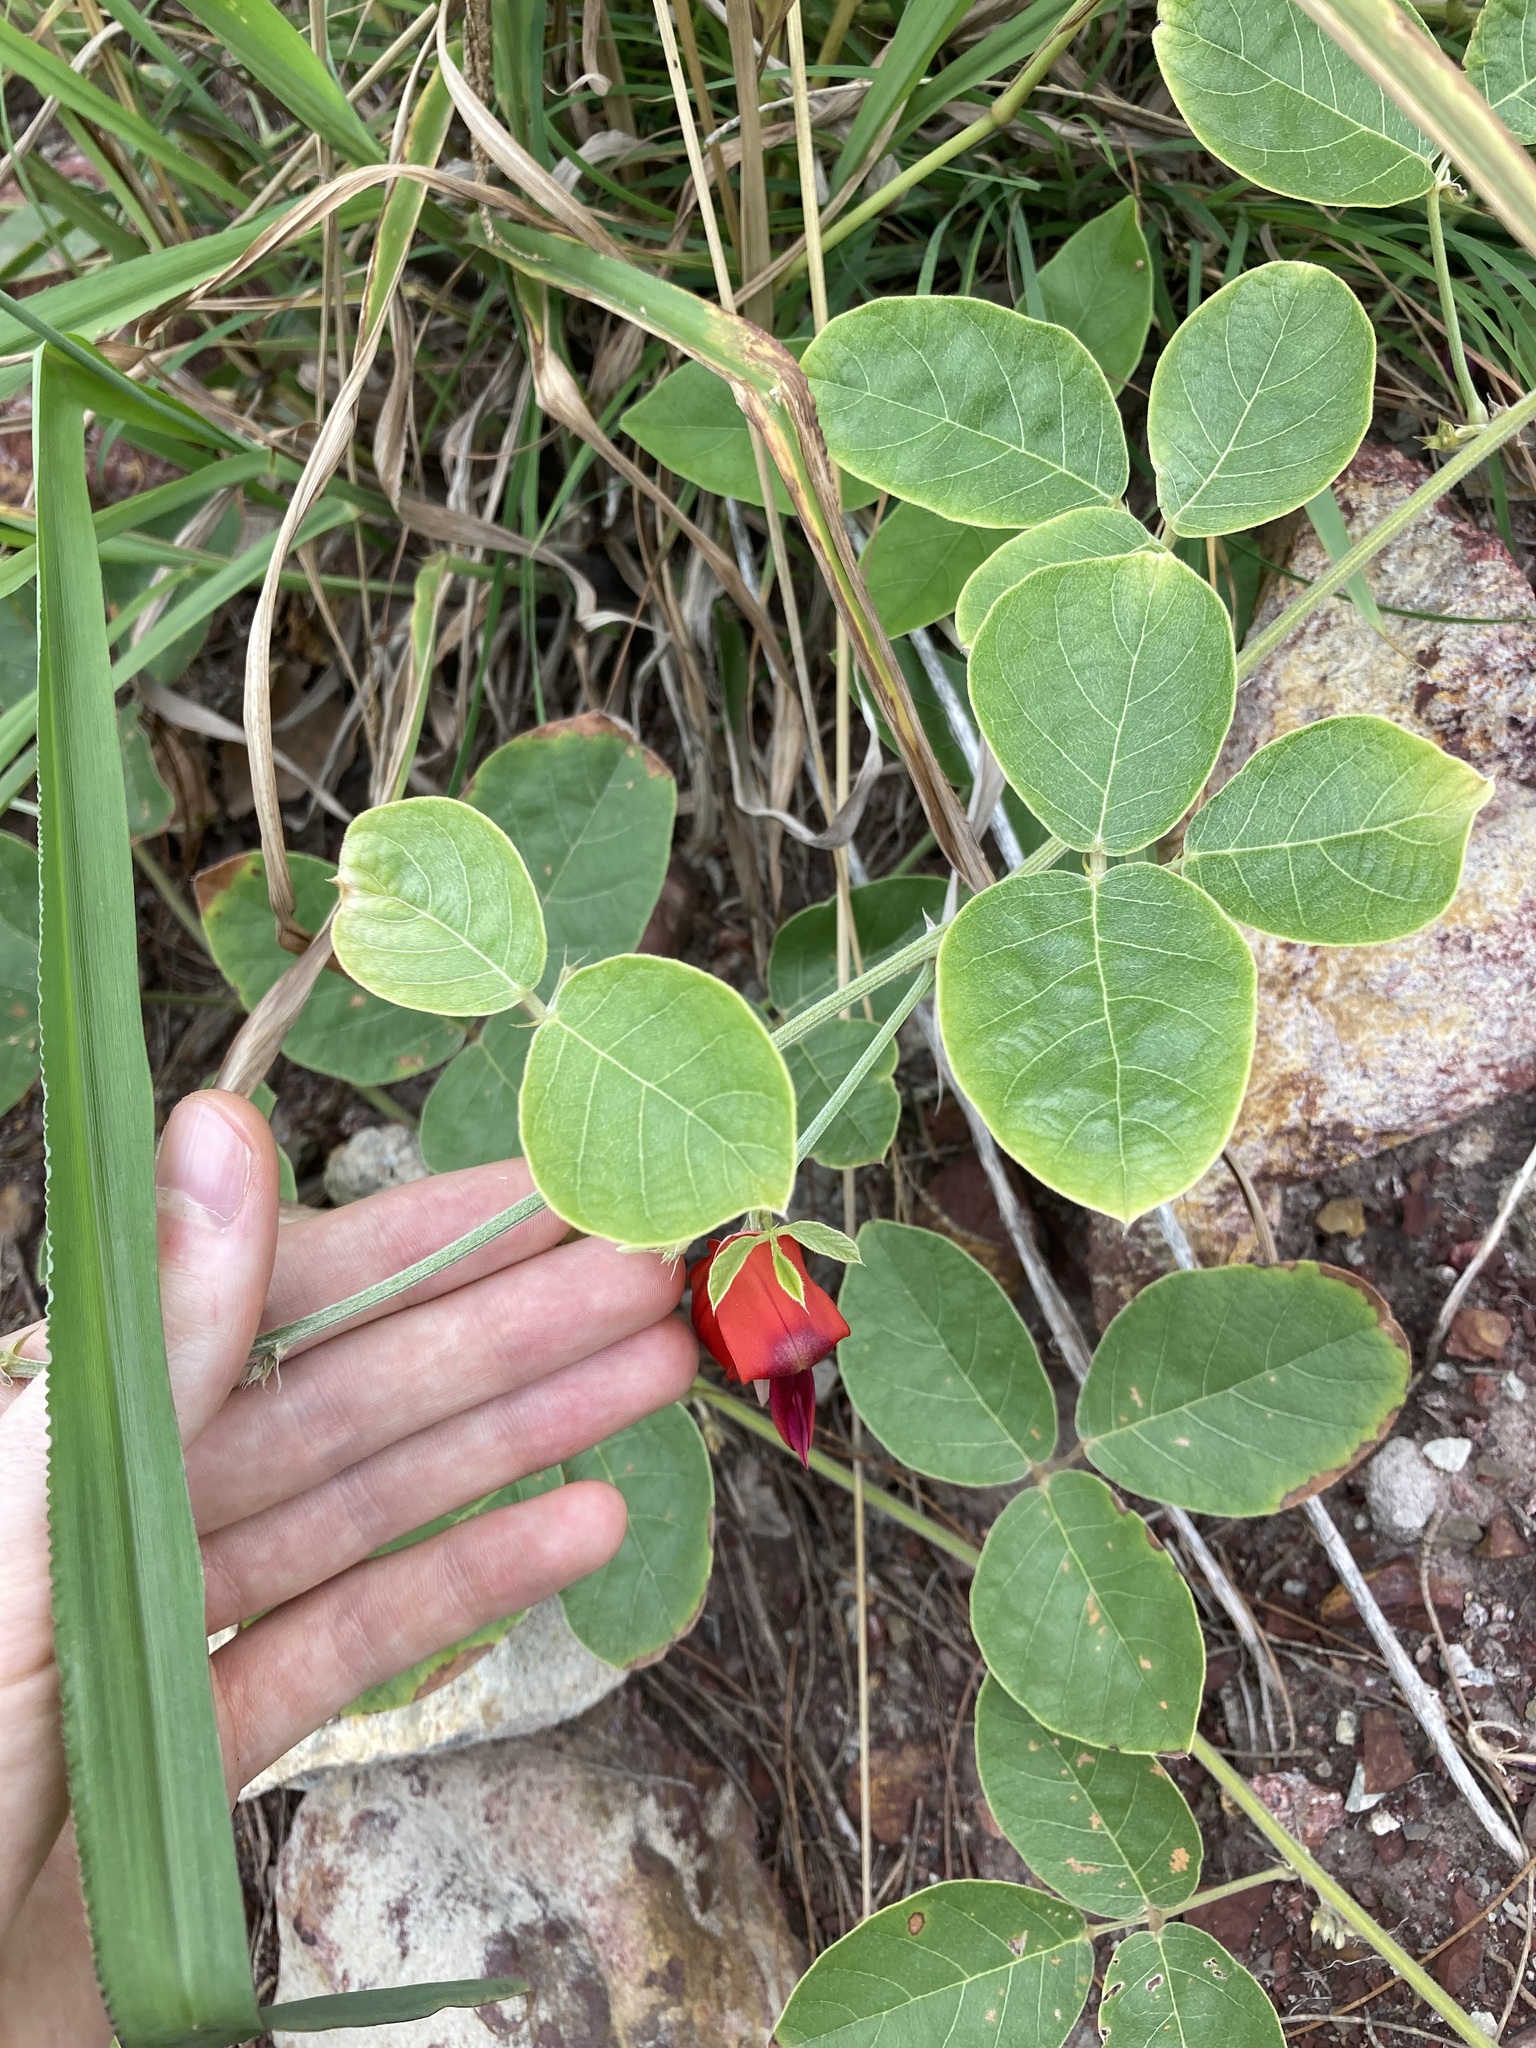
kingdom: Plantae
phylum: Tracheophyta
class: Magnoliopsida
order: Fabales
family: Fabaceae
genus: Kennedia
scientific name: Kennedia rubicunda
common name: Red kennedy-pea
